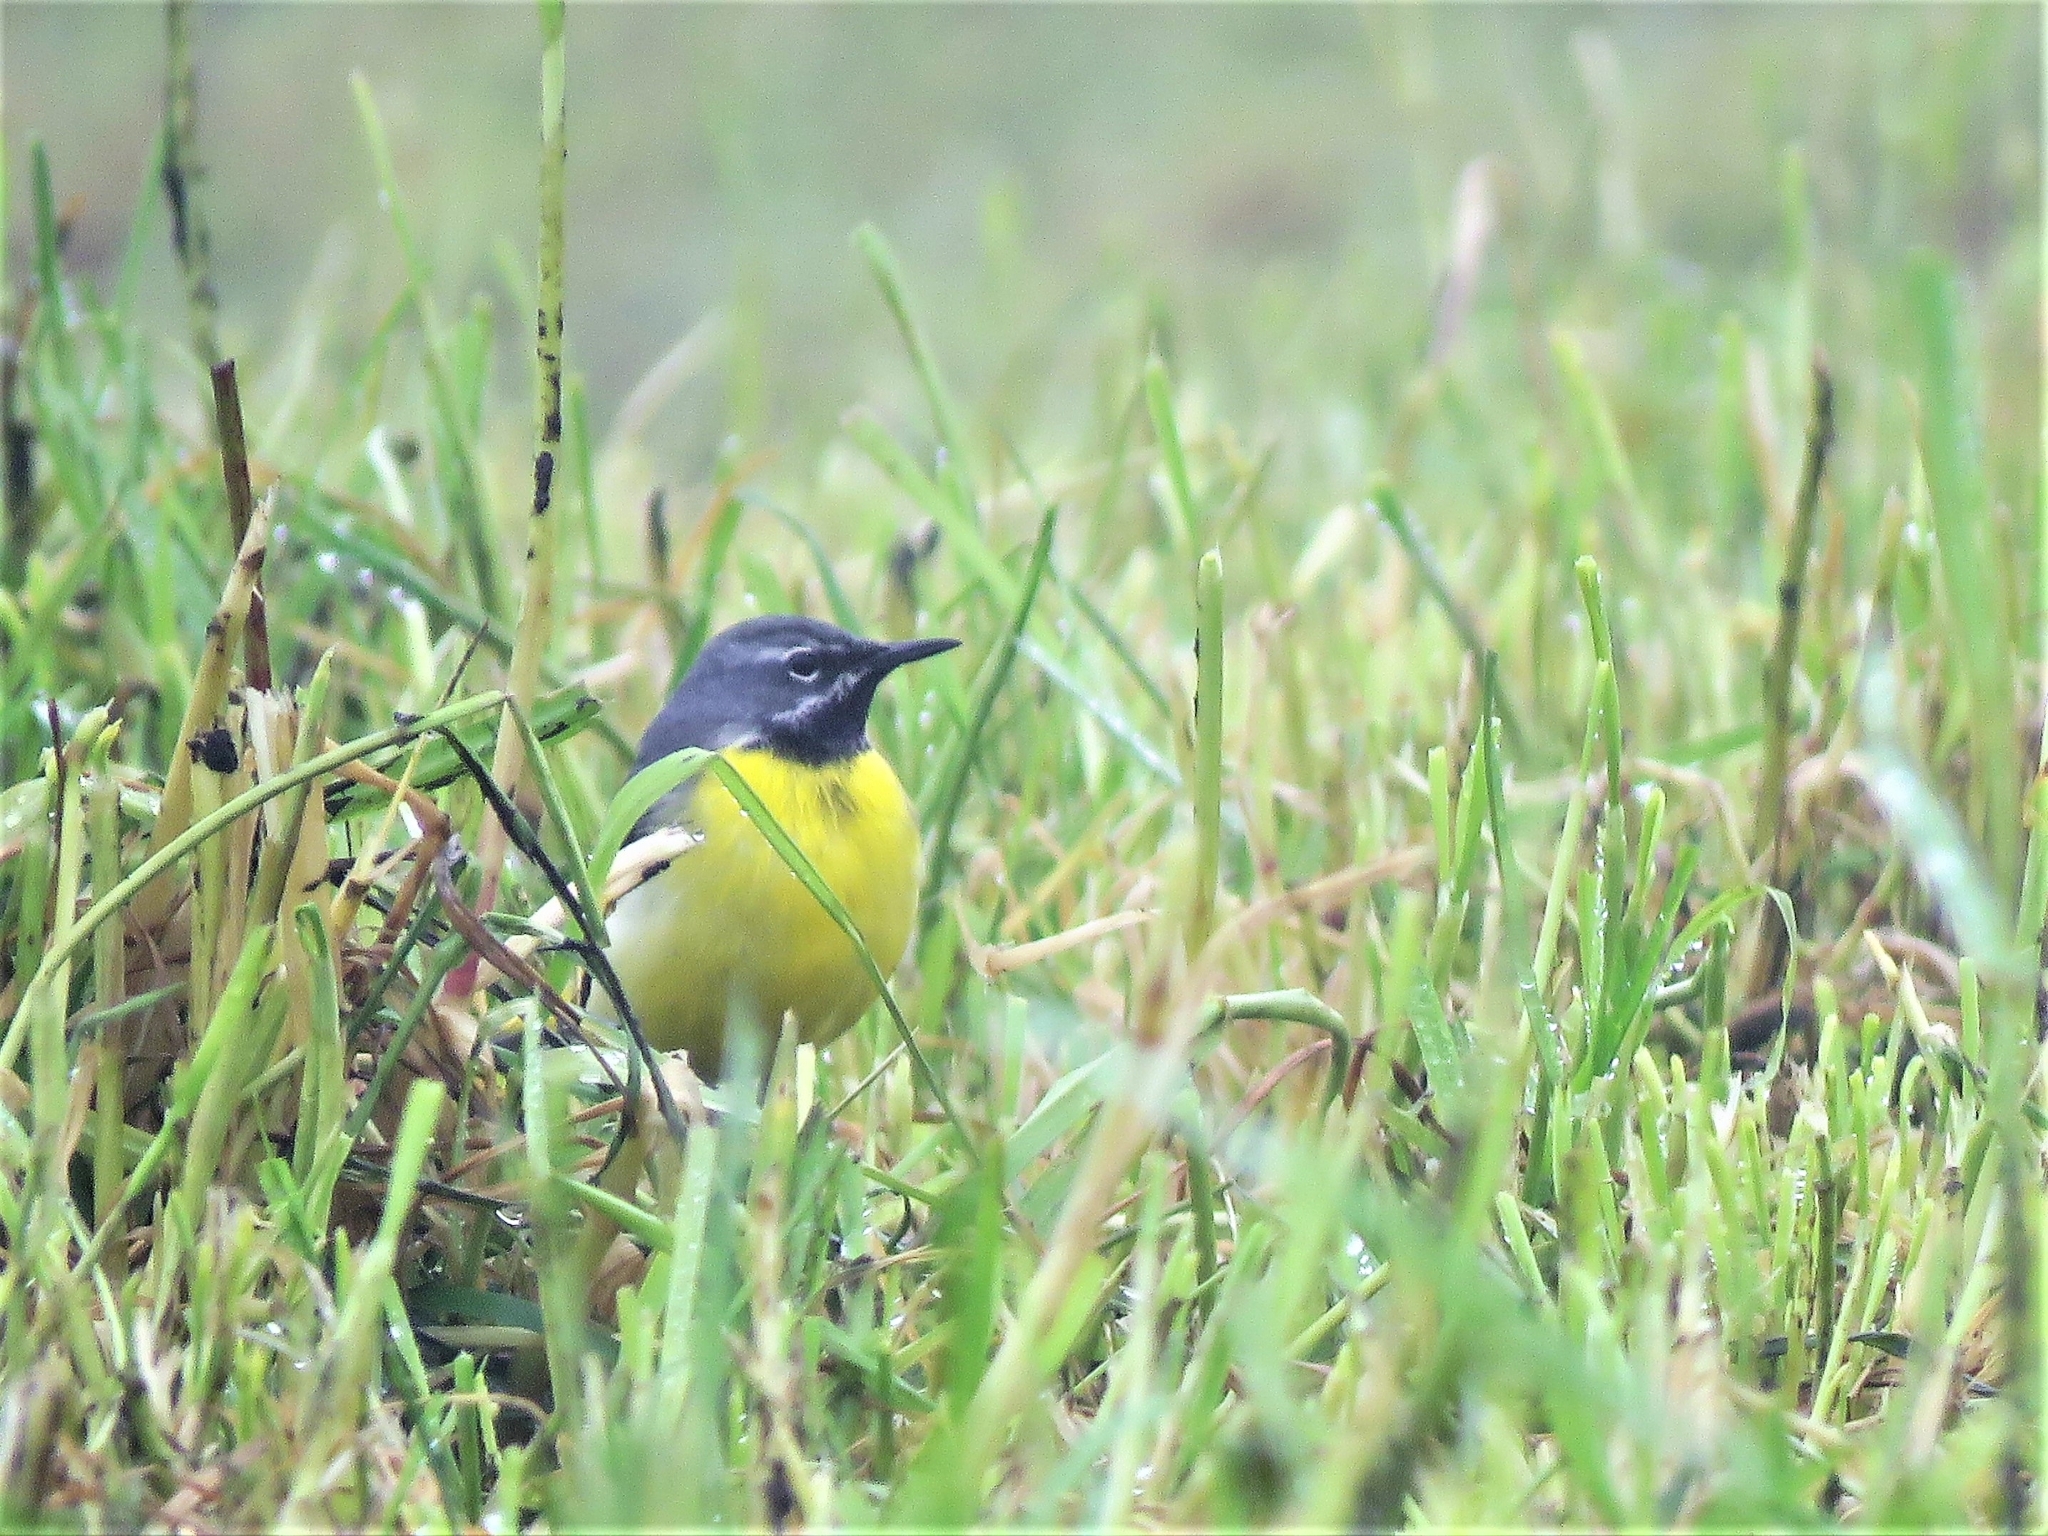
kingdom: Animalia
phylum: Chordata
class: Aves
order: Passeriformes
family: Motacillidae
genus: Motacilla
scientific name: Motacilla cinerea
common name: Grey wagtail
